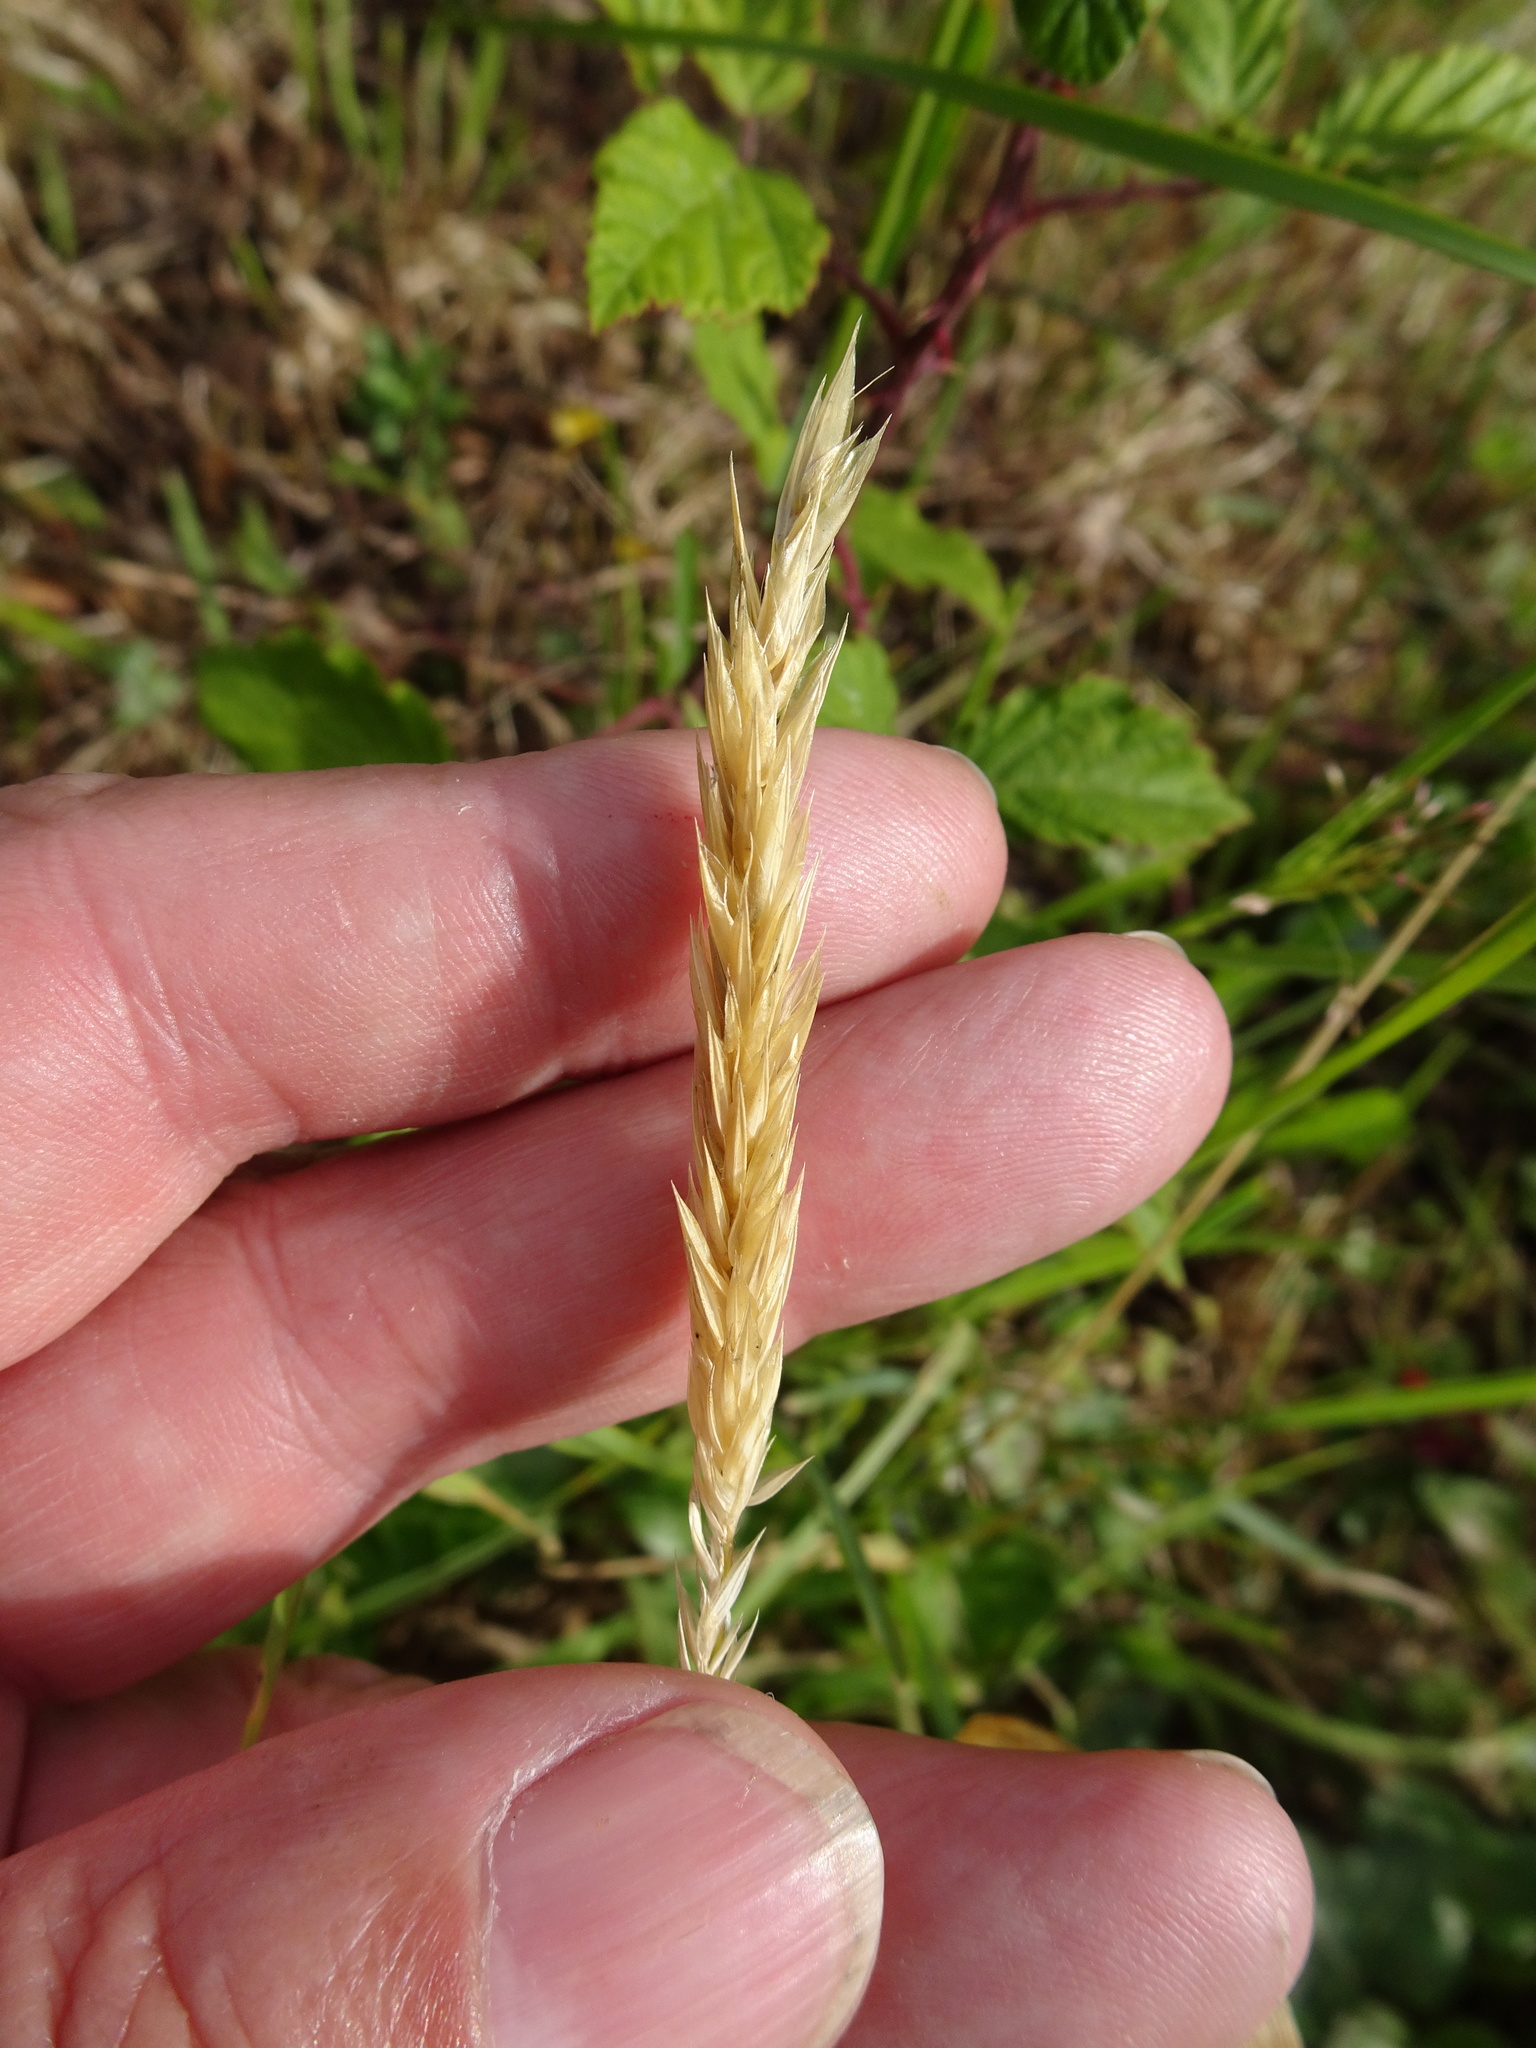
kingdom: Plantae
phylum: Tracheophyta
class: Liliopsida
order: Poales
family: Poaceae
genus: Anthoxanthum
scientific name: Anthoxanthum odoratum
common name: Sweet vernalgrass
